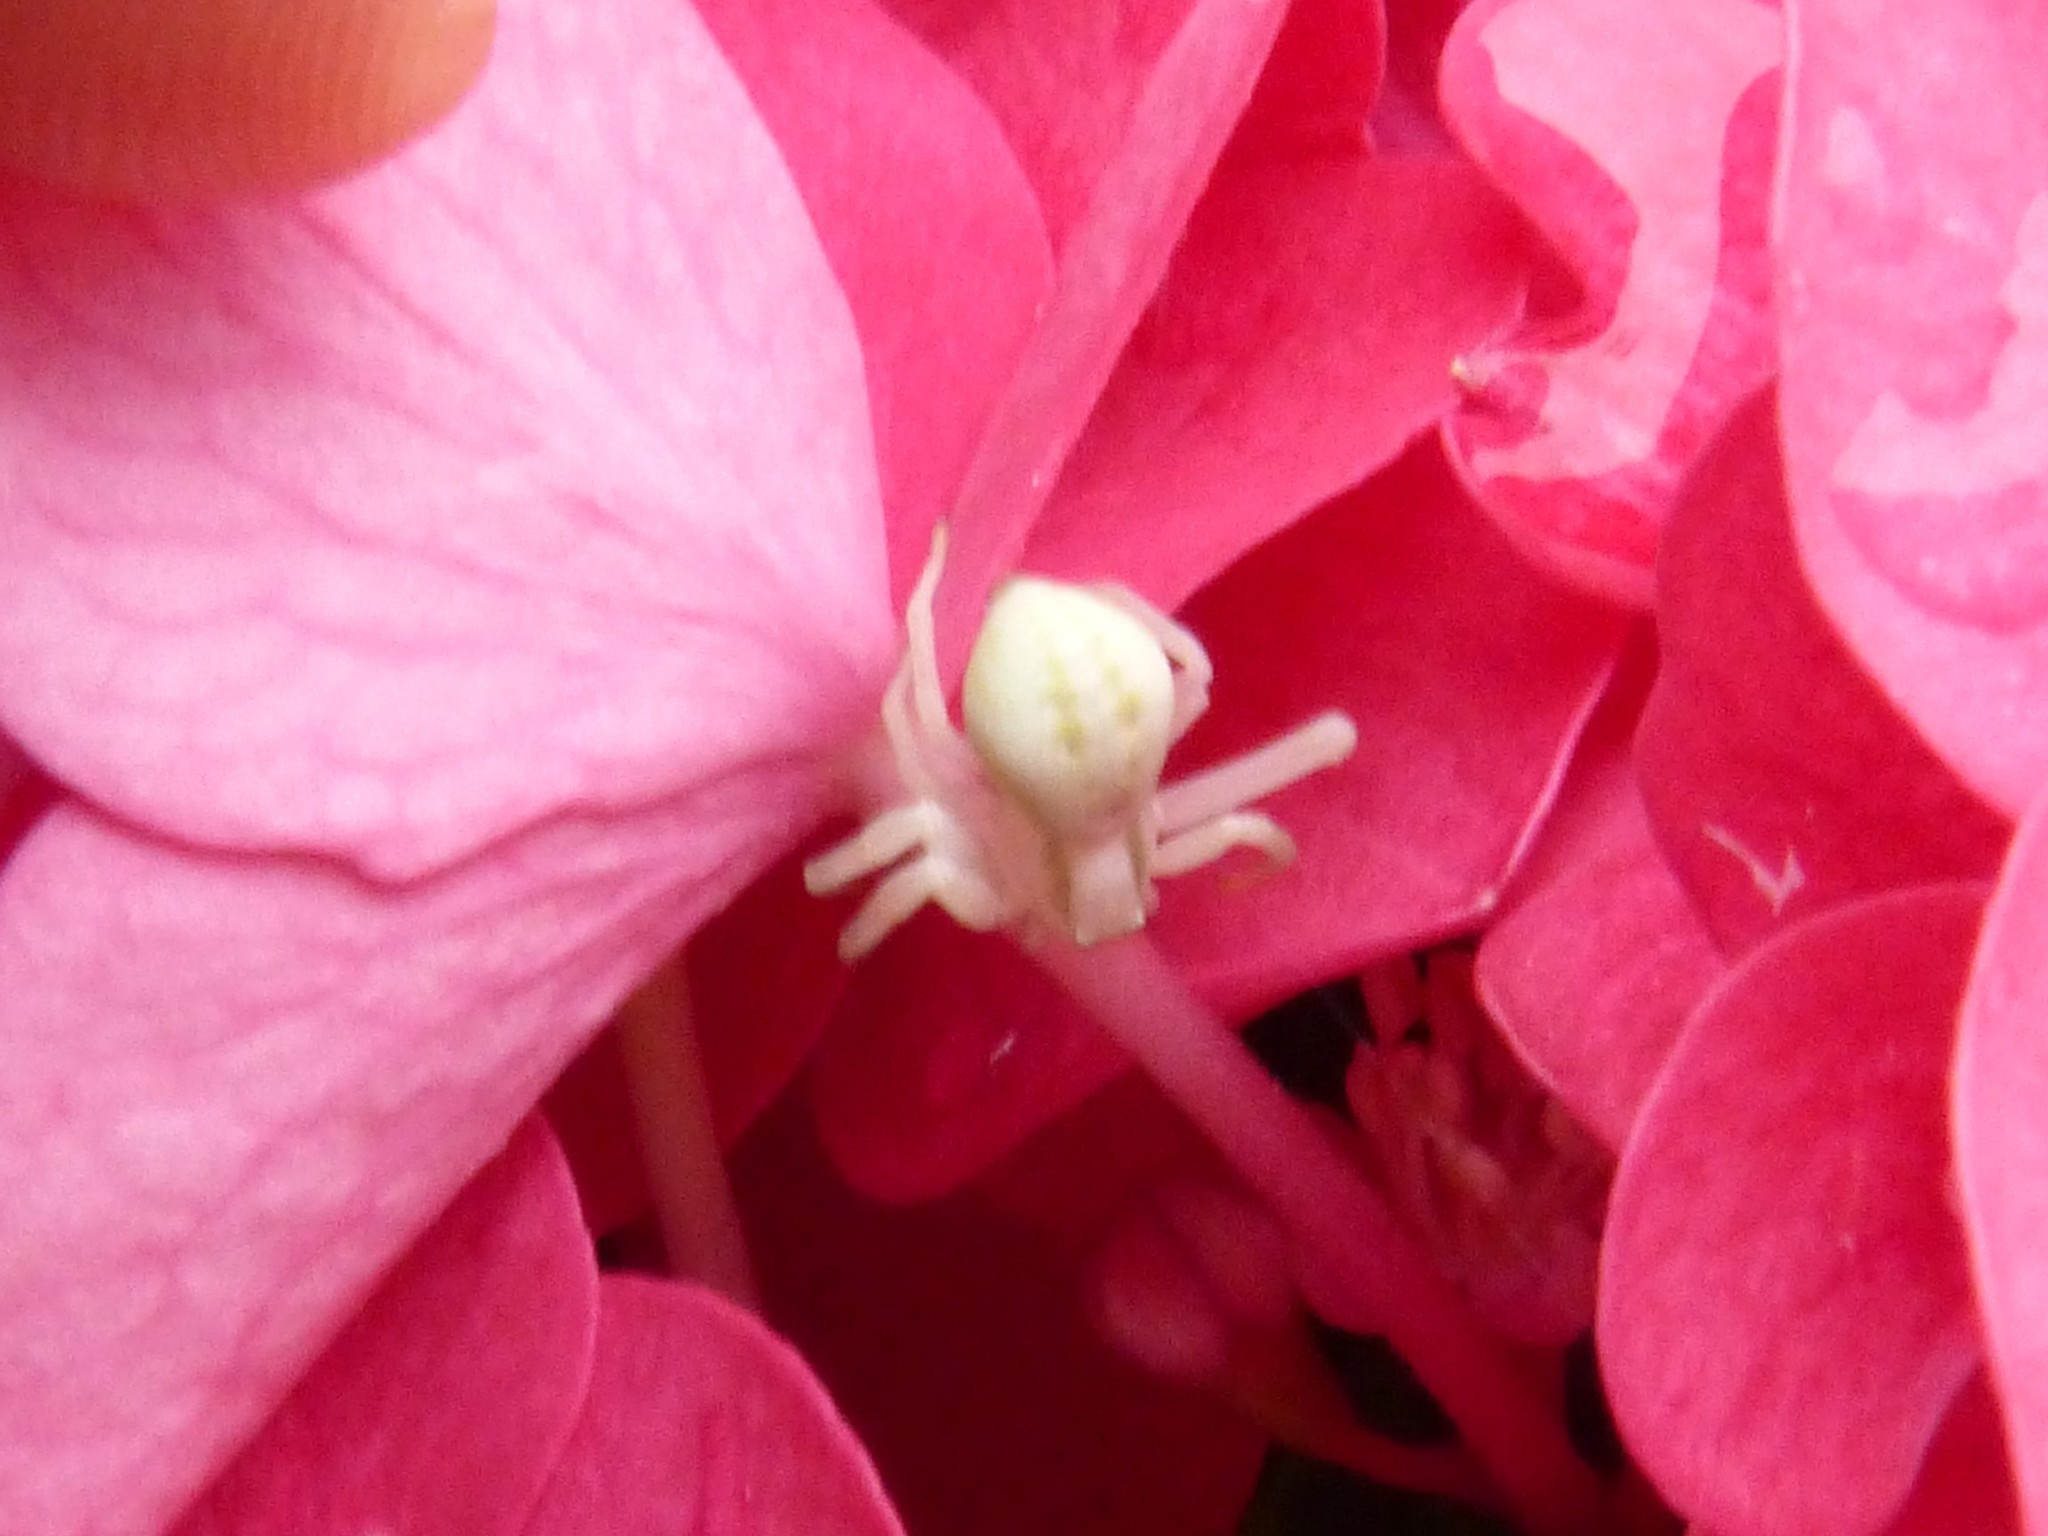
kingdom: Animalia
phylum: Arthropoda
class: Arachnida
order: Araneae
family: Thomisidae
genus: Misumena
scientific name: Misumena vatia
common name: Goldenrod crab spider
